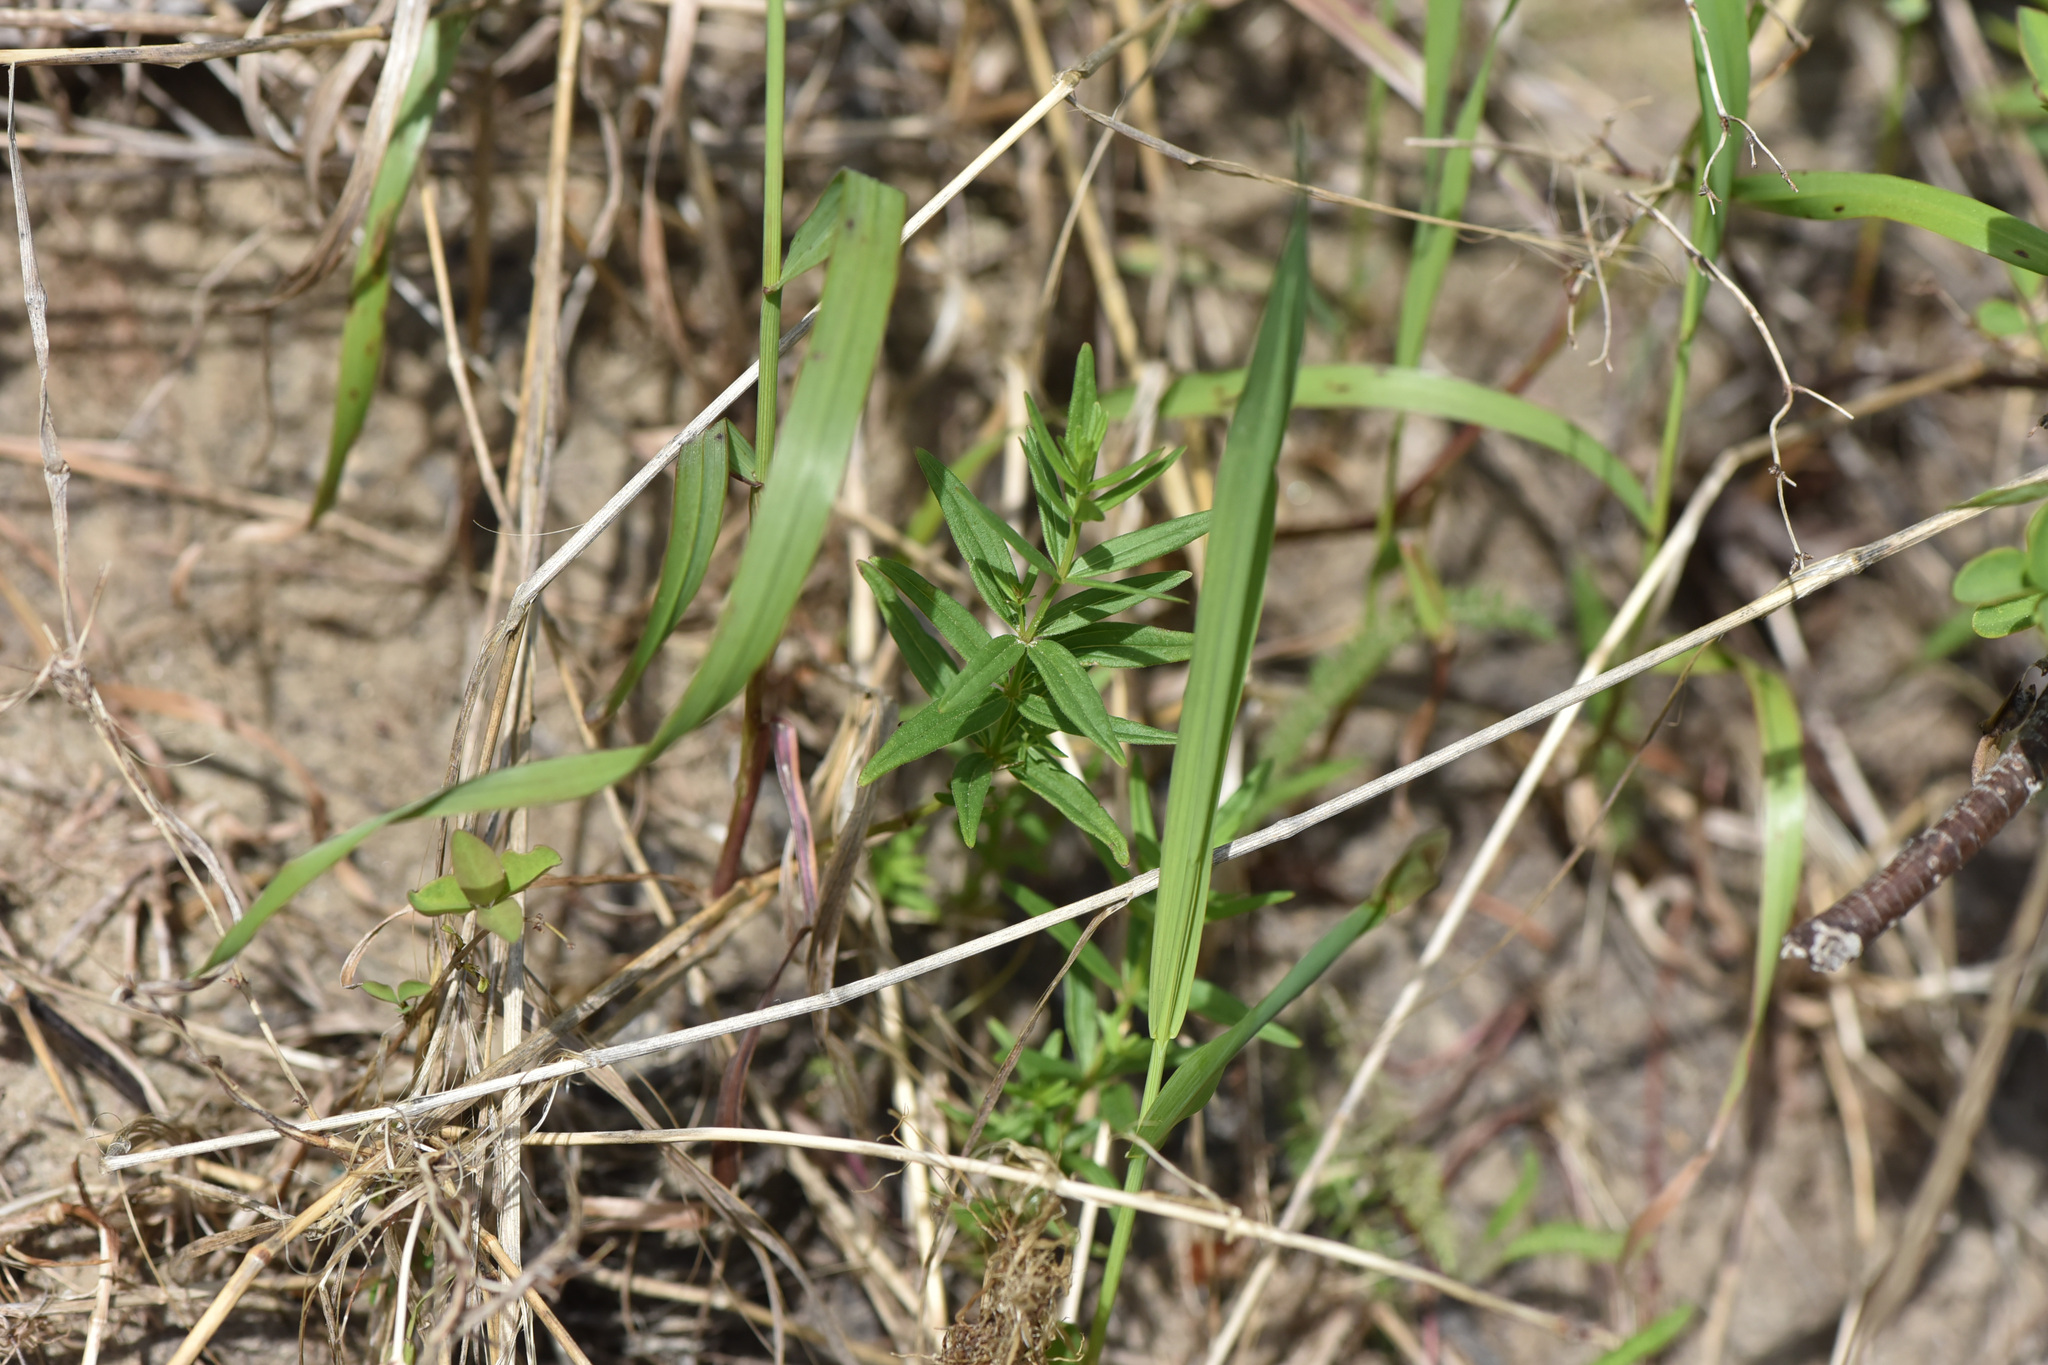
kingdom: Plantae
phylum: Tracheophyta
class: Magnoliopsida
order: Gentianales
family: Rubiaceae
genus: Galium
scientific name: Galium boreale
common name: Northern bedstraw
